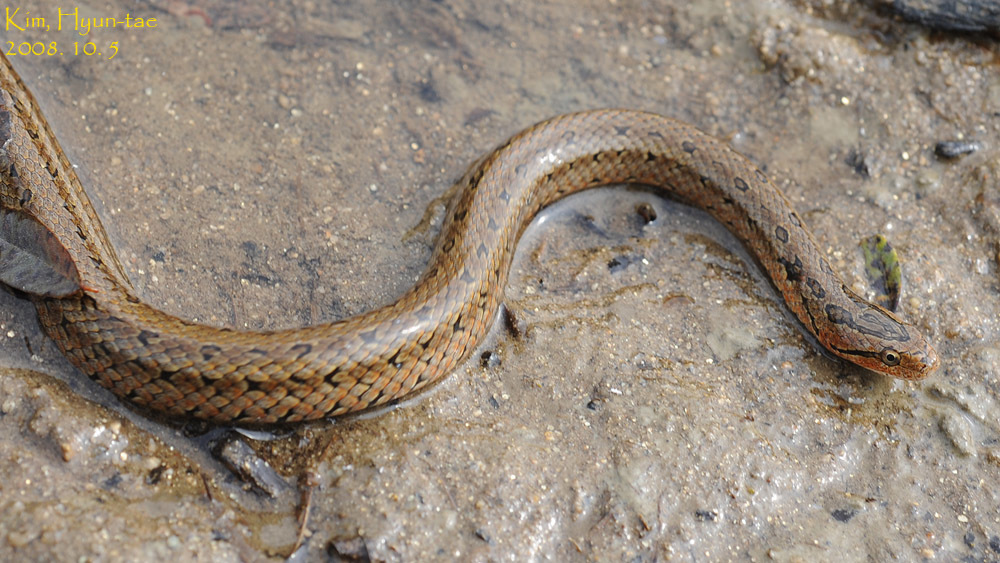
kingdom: Animalia
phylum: Chordata
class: Squamata
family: Colubridae
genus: Oocatochus
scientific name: Oocatochus rufodorsatus
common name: Frog-eating rat snake
